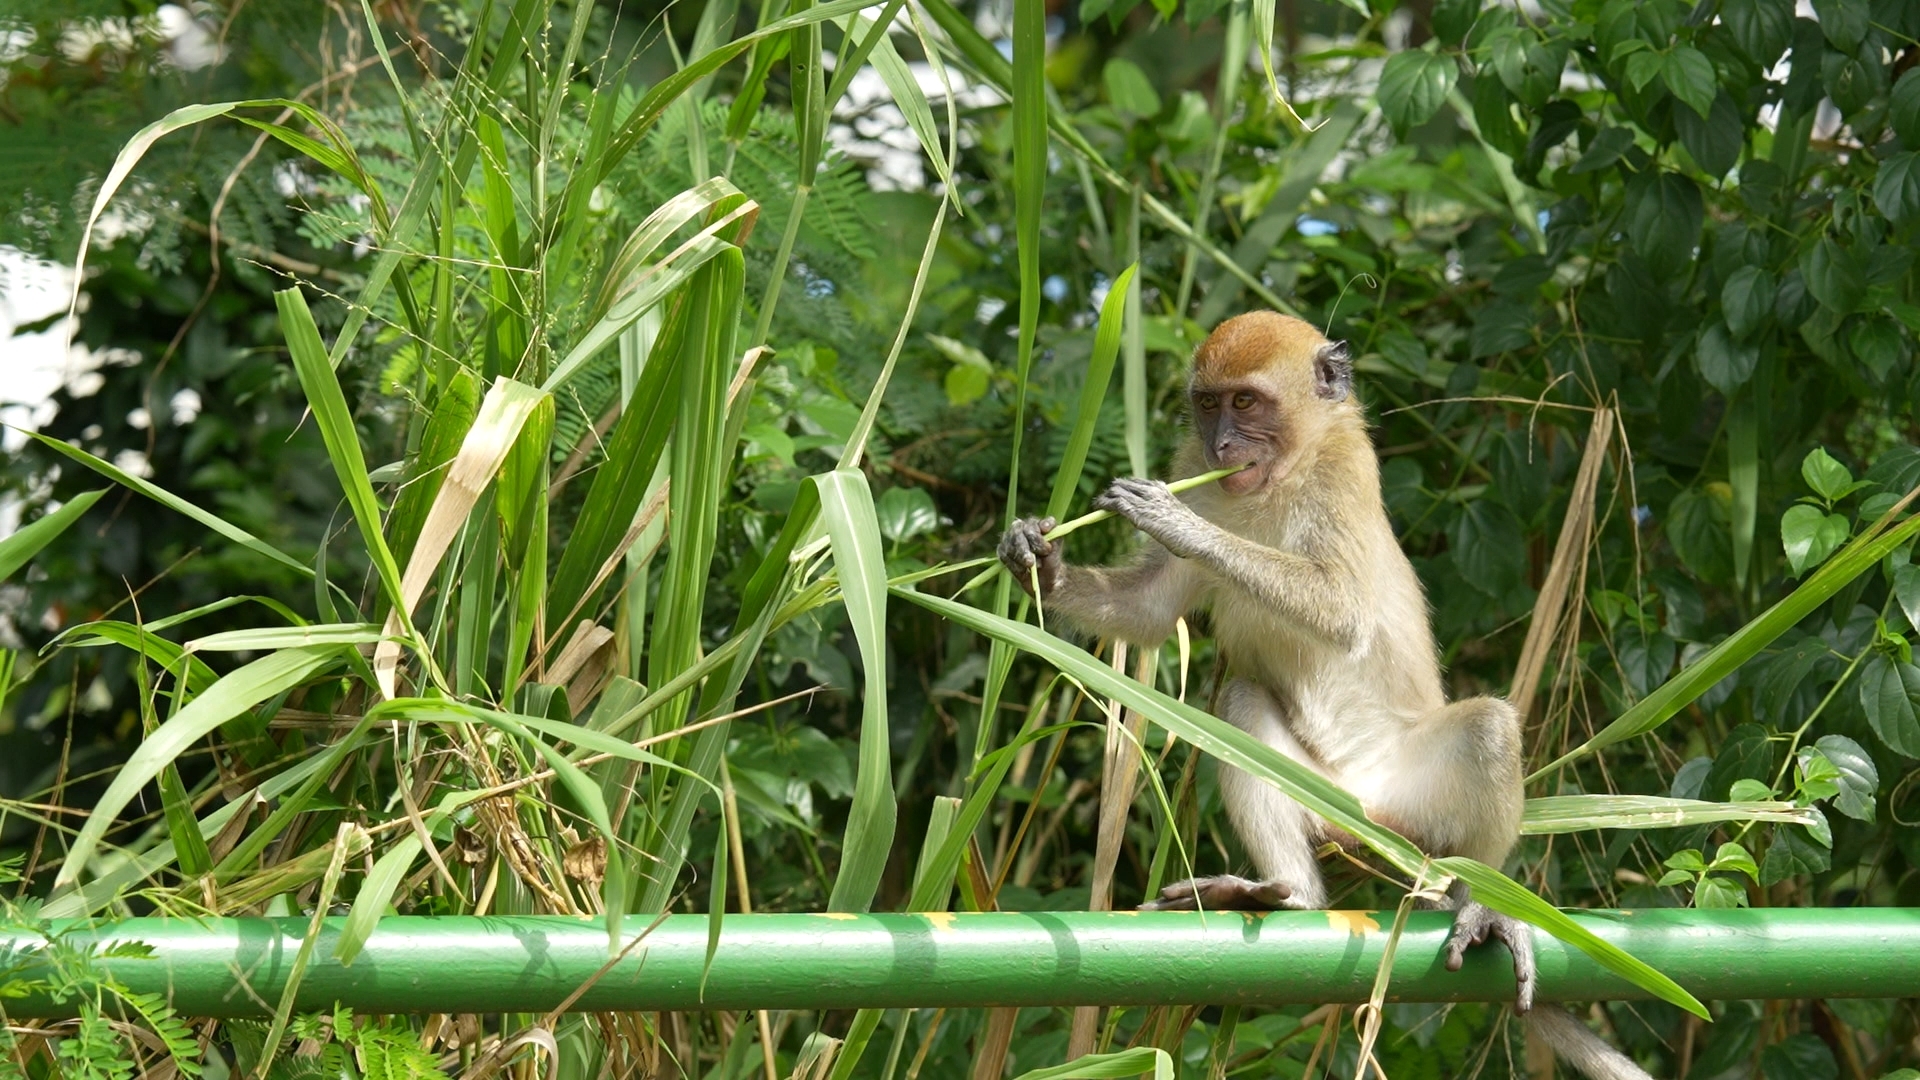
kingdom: Animalia
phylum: Chordata
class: Mammalia
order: Primates
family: Cercopithecidae
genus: Macaca
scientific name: Macaca fascicularis
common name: Crab-eating macaque
